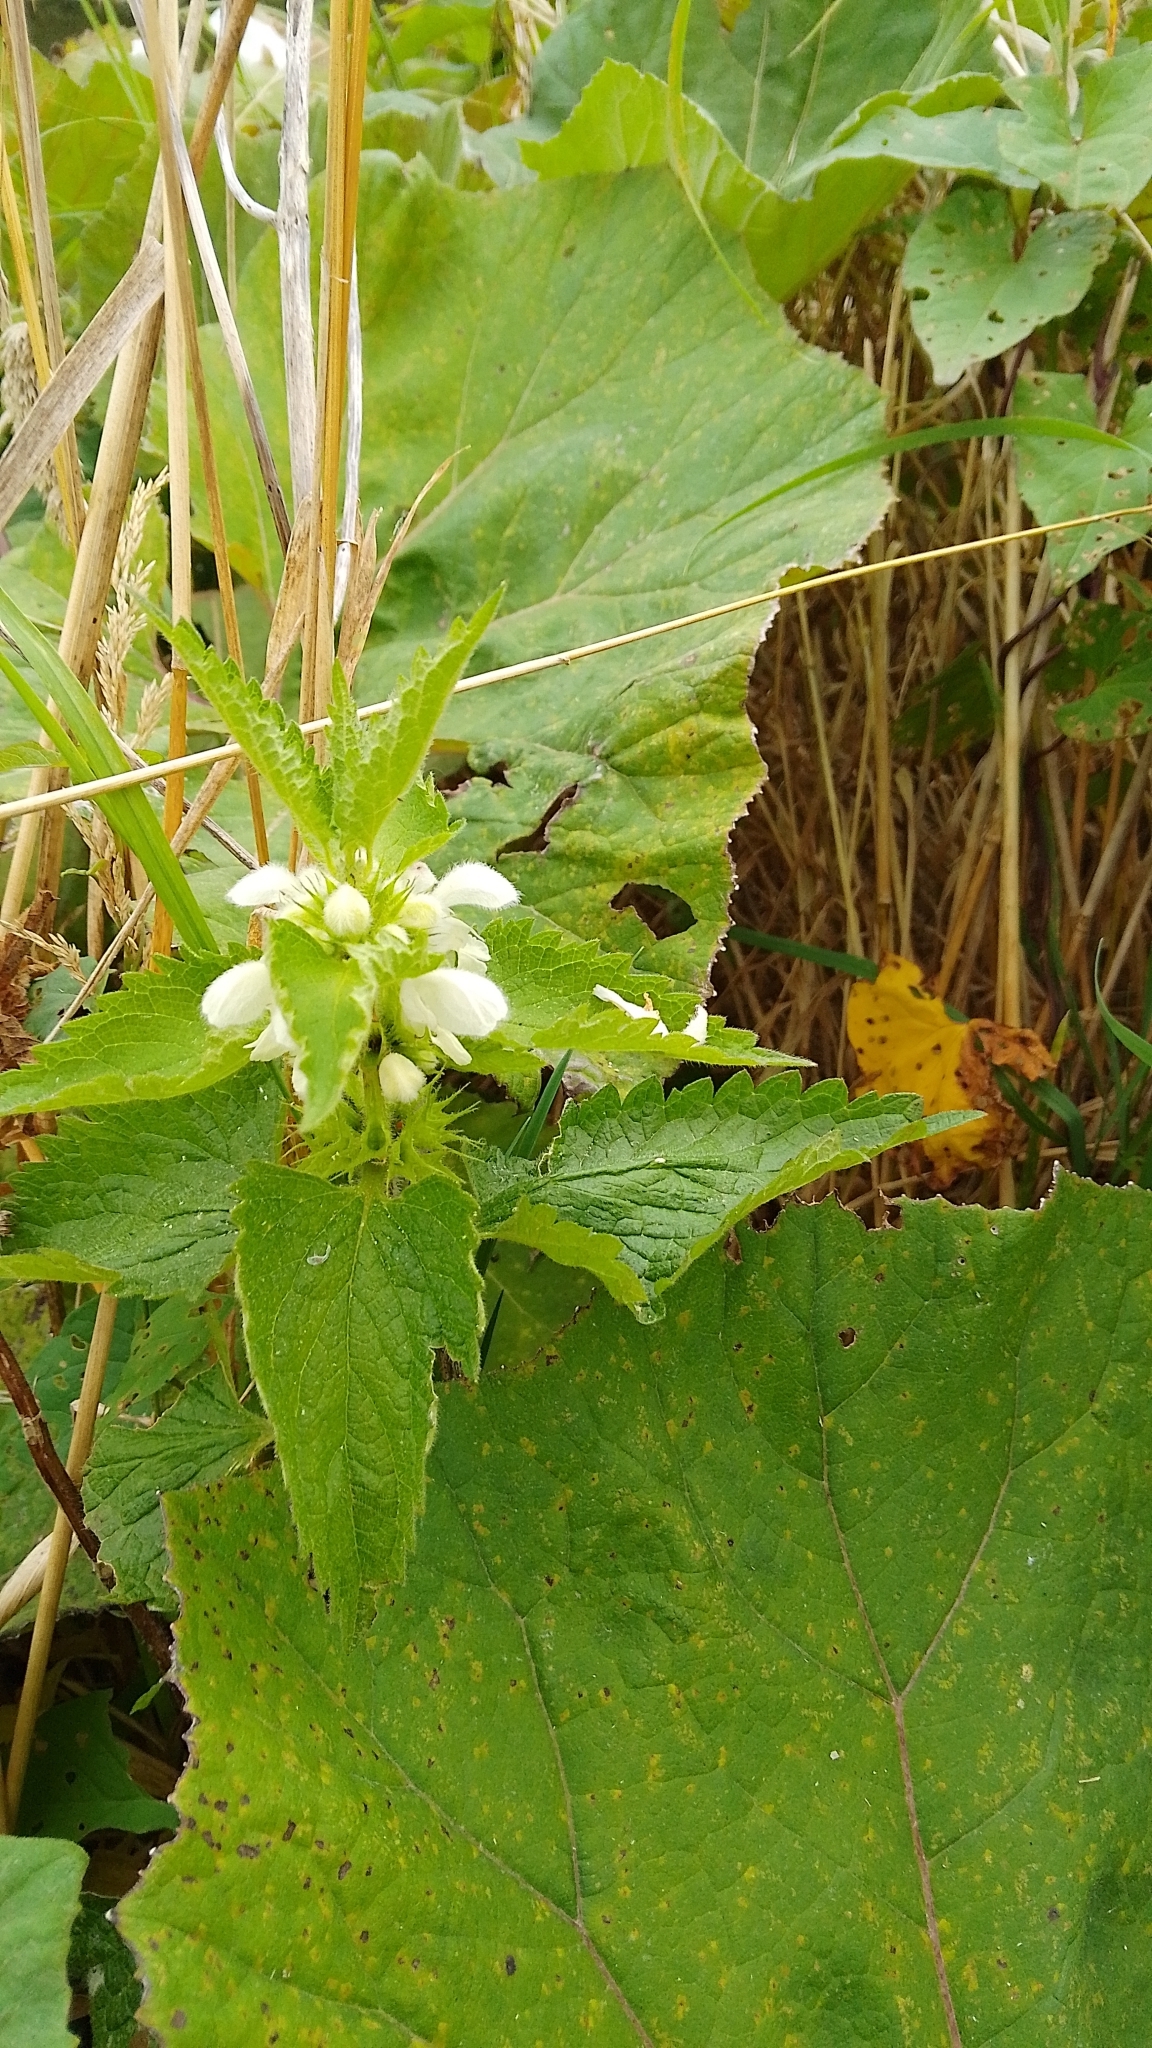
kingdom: Plantae
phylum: Tracheophyta
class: Magnoliopsida
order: Lamiales
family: Lamiaceae
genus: Lamium
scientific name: Lamium album
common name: White dead-nettle
